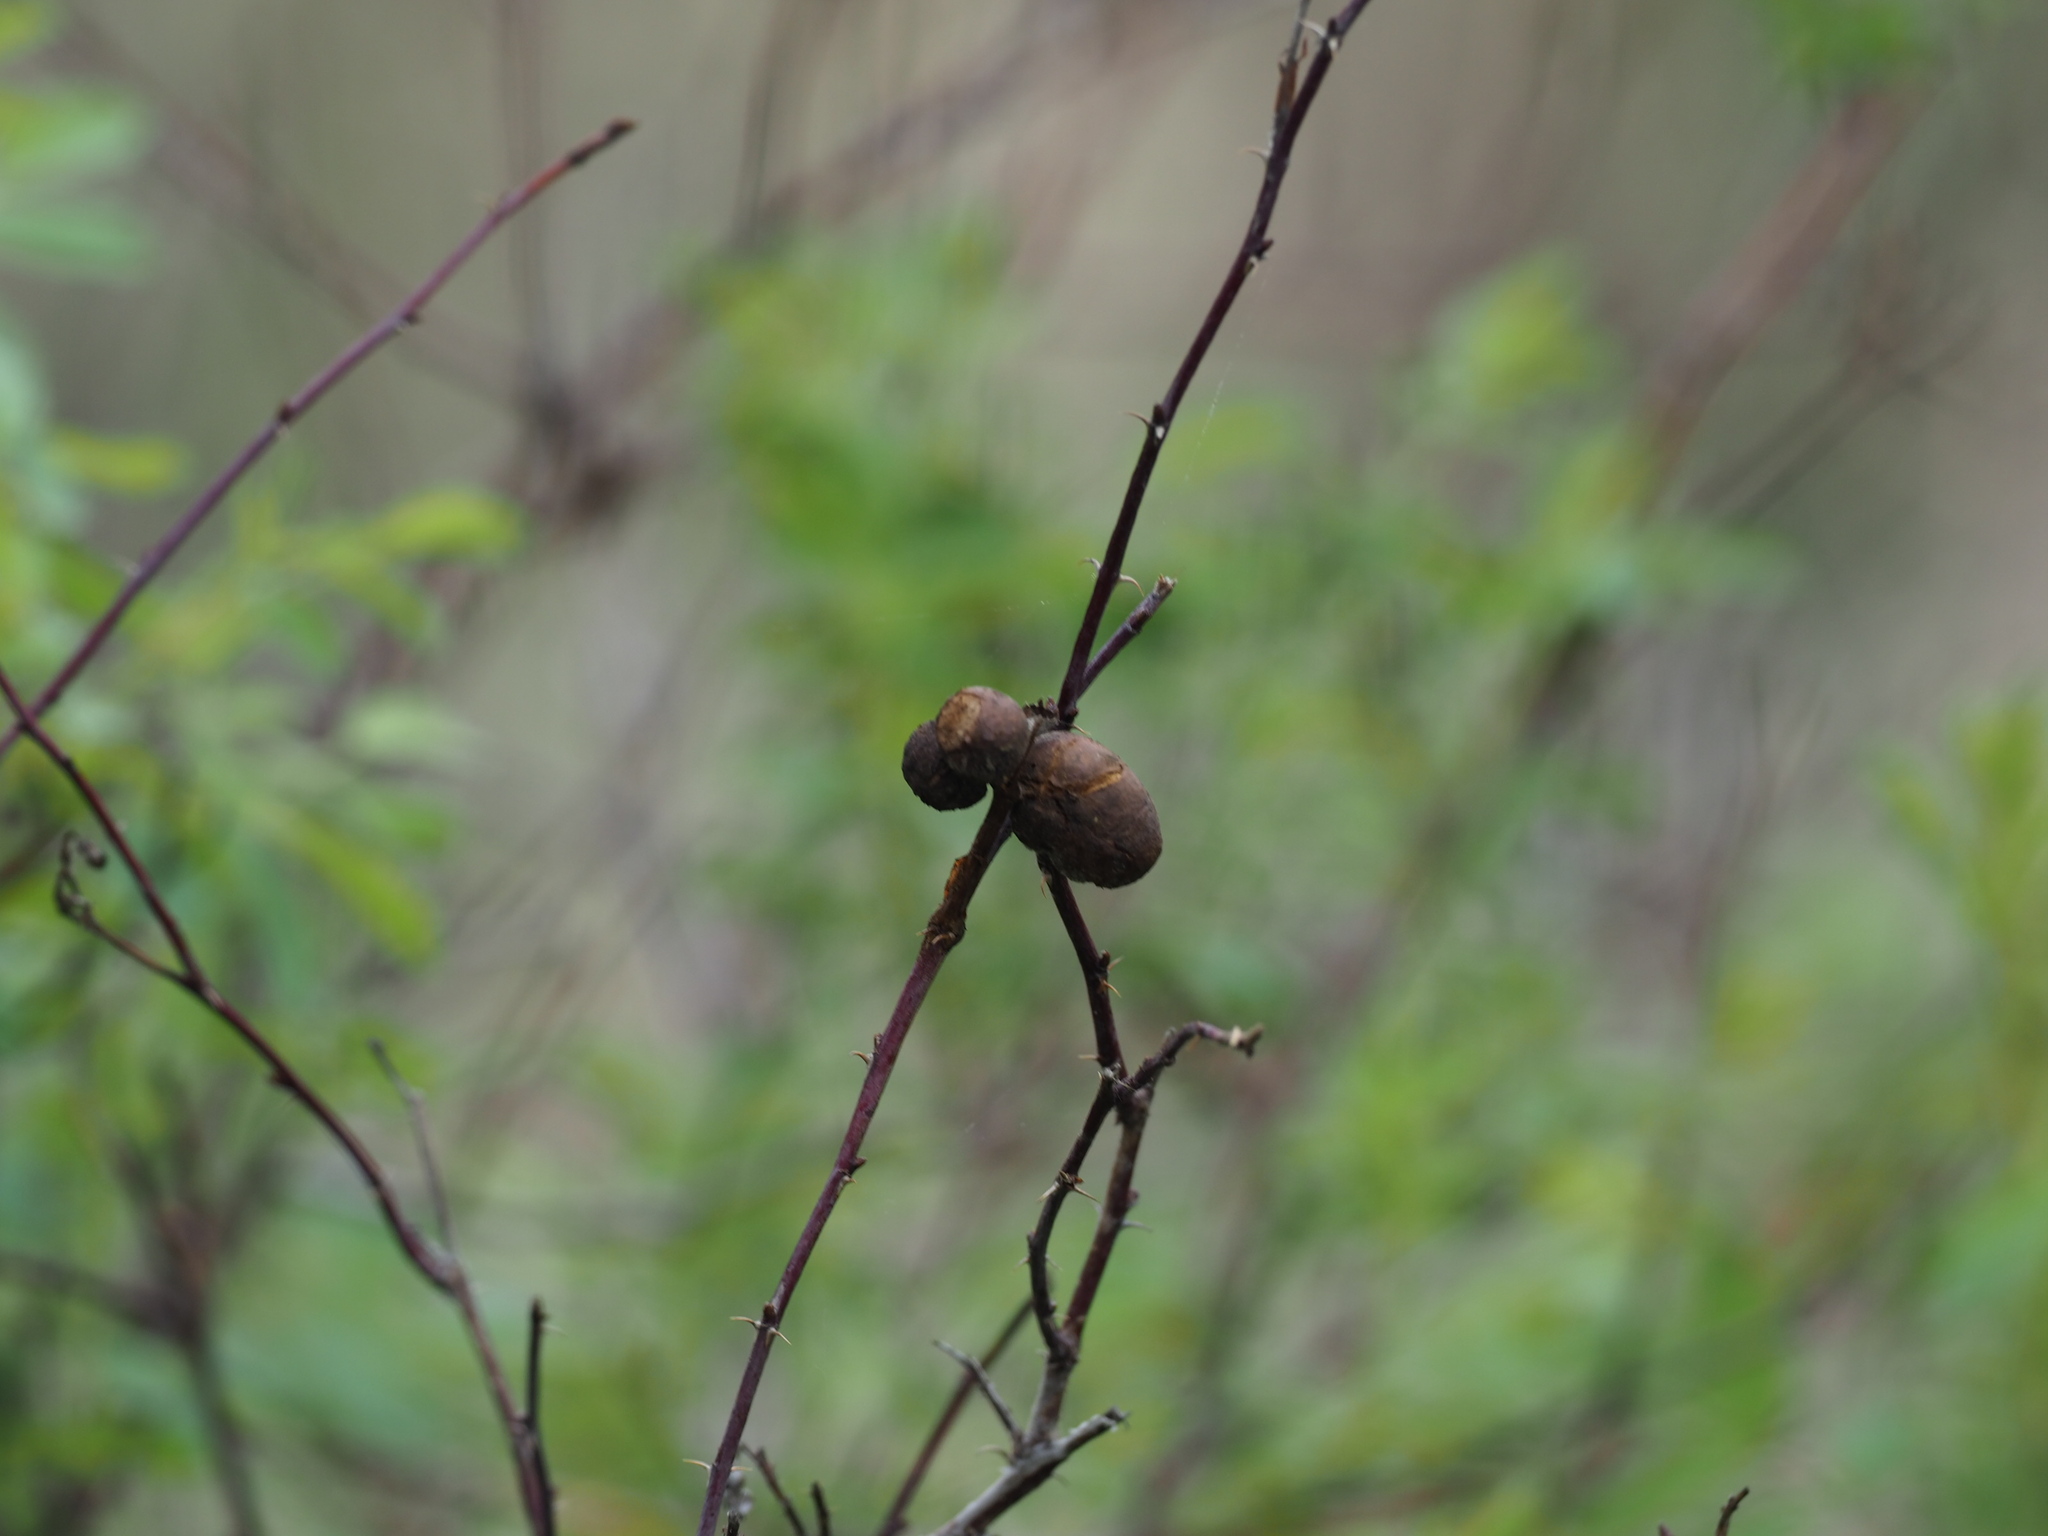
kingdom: Animalia
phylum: Arthropoda
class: Insecta
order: Hymenoptera
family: Cynipidae
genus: Diplolepis
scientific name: Diplolepis variabilis
